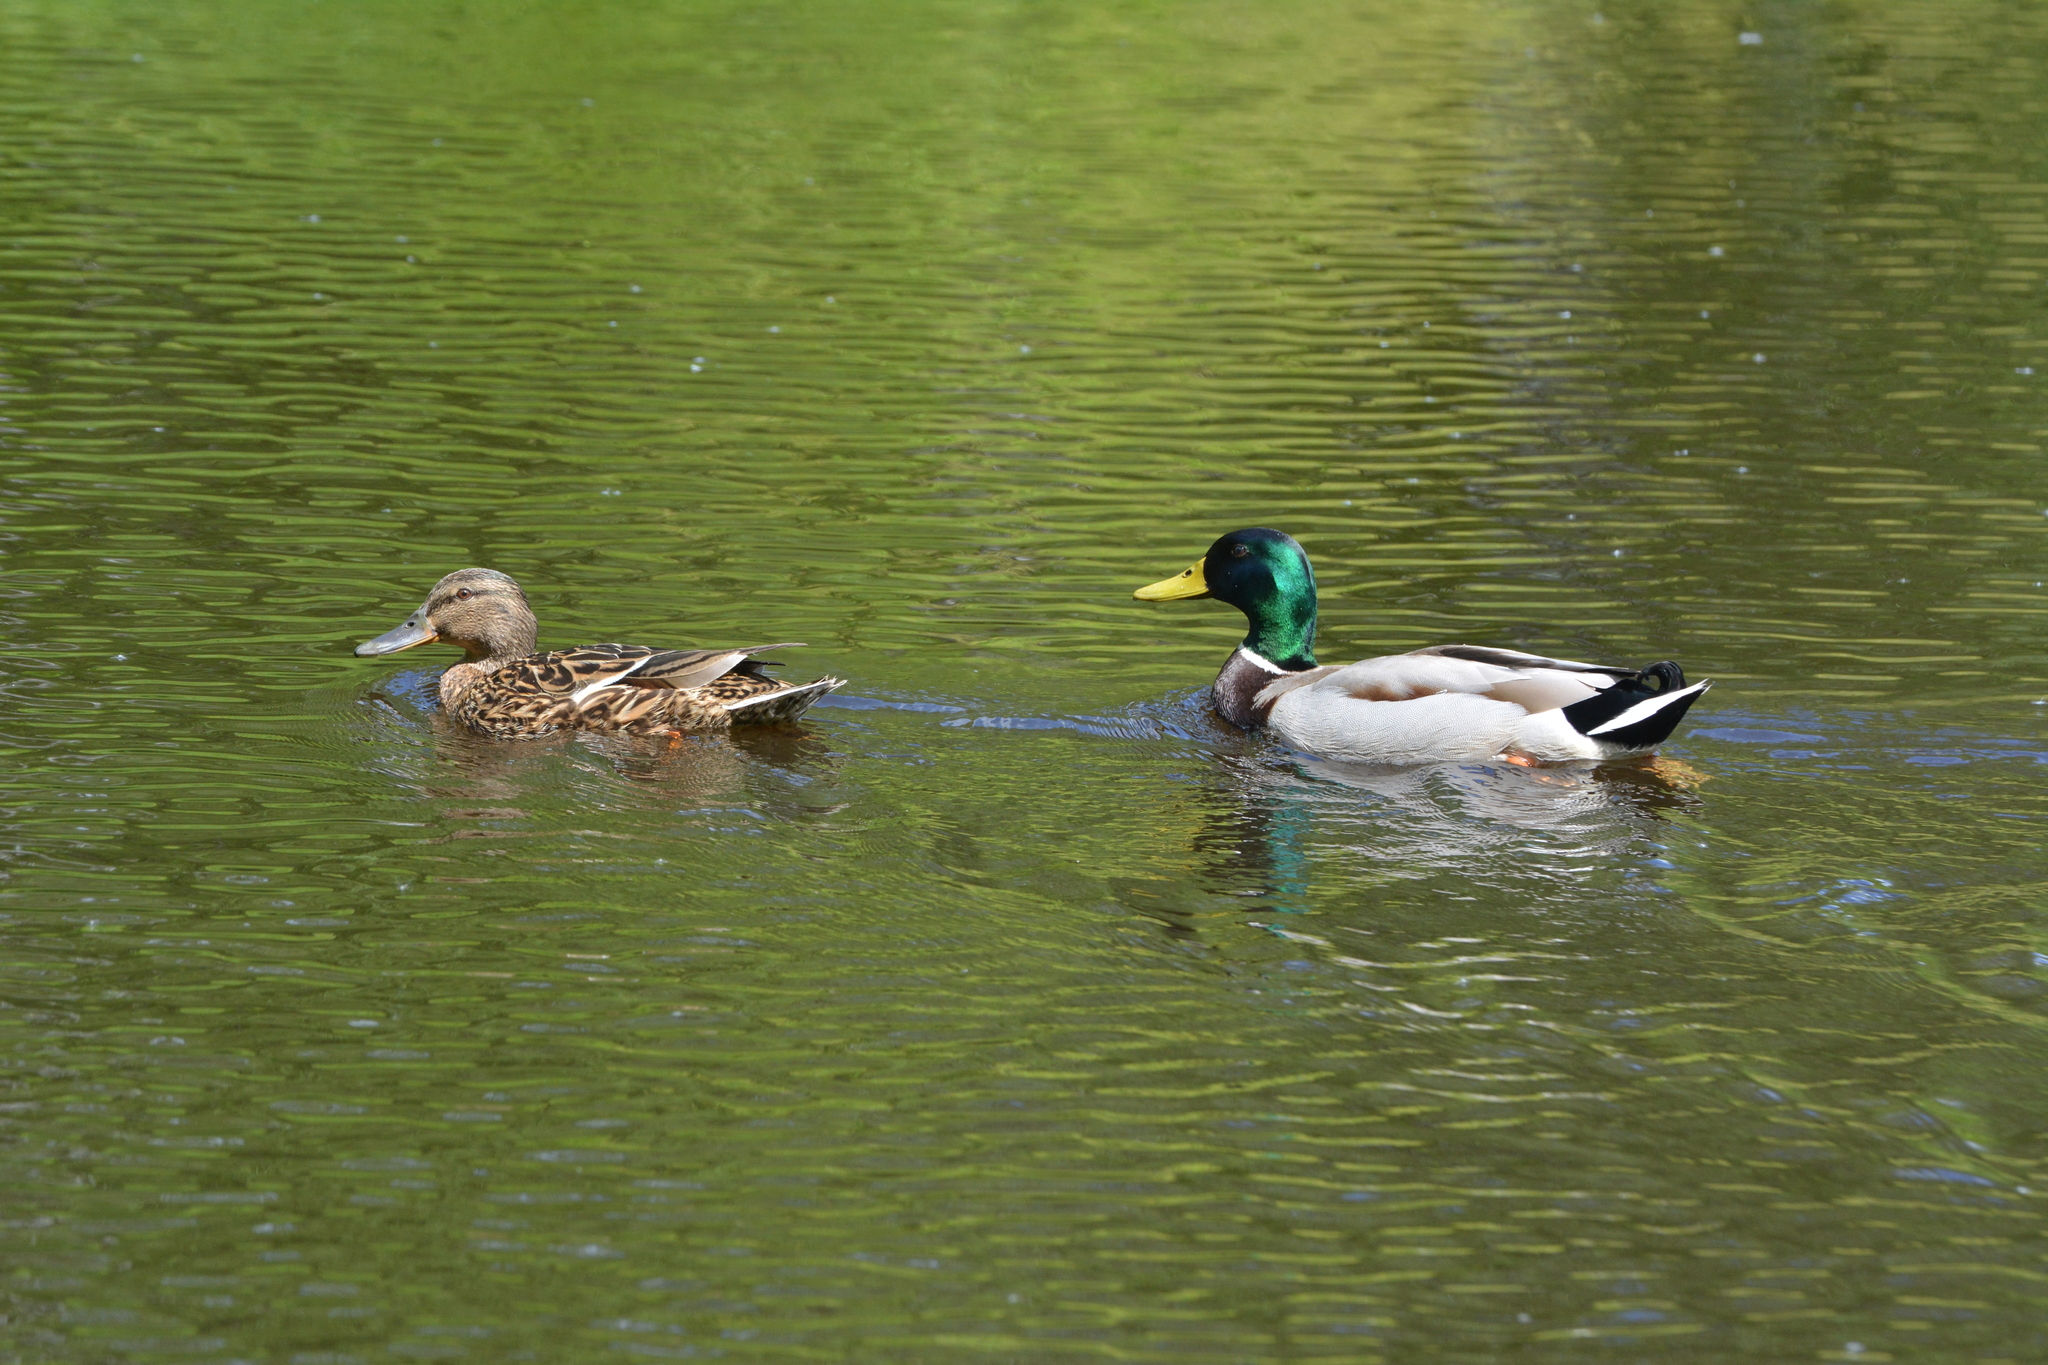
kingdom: Animalia
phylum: Chordata
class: Aves
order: Anseriformes
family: Anatidae
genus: Anas
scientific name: Anas platyrhynchos
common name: Mallard
